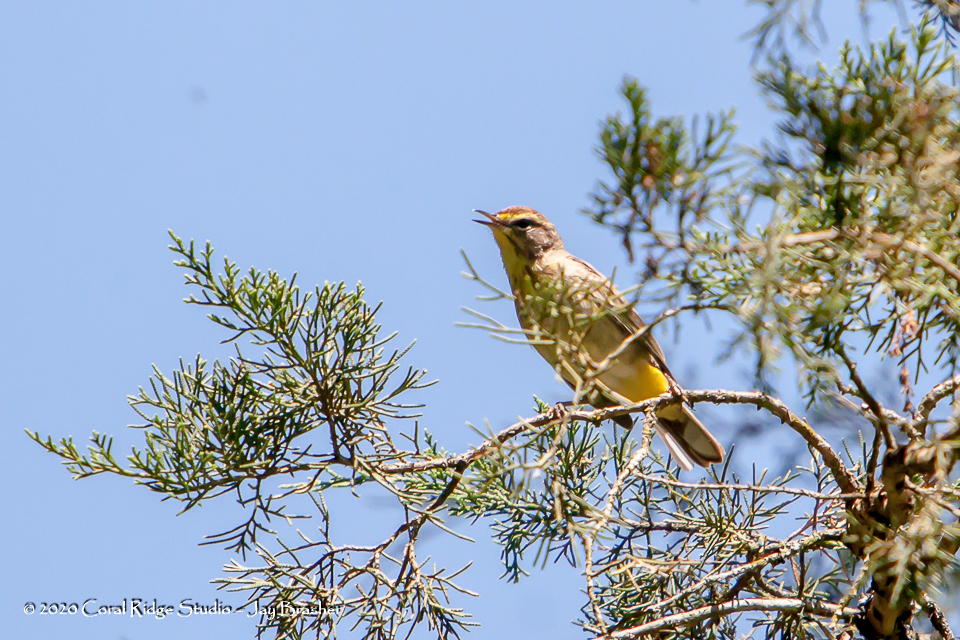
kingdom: Animalia
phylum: Chordata
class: Aves
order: Passeriformes
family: Parulidae
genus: Setophaga
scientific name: Setophaga palmarum
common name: Palm warbler
